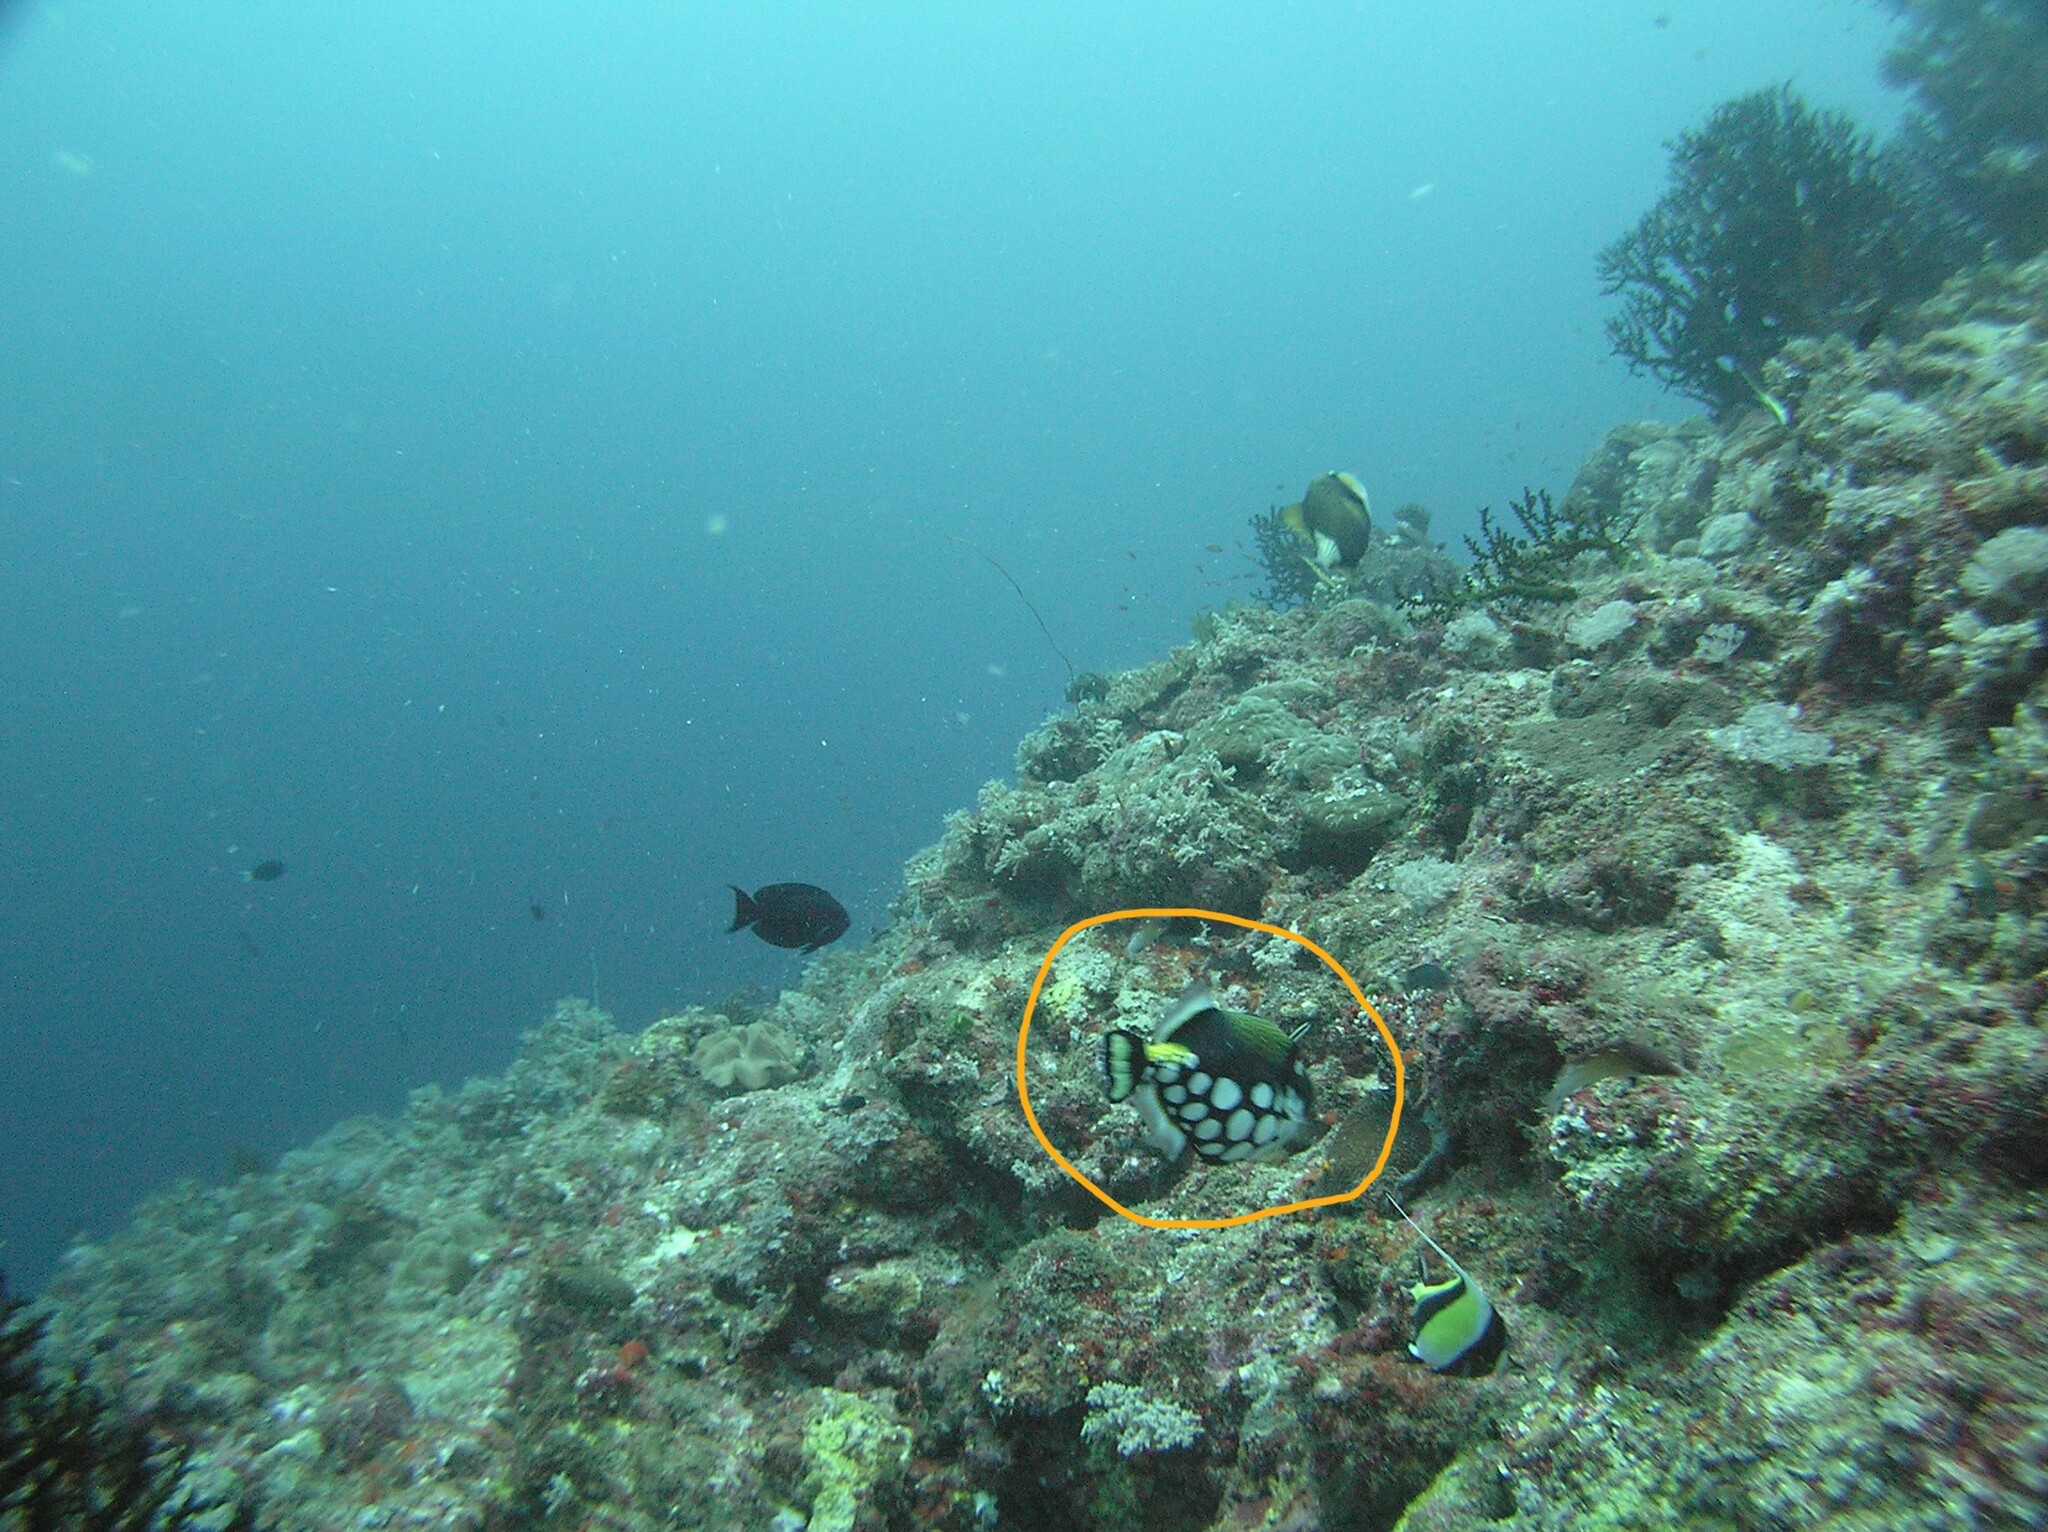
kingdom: Animalia
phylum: Chordata
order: Tetraodontiformes
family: Balistidae
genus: Balistoides
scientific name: Balistoides conspicillum
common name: Clown triggerfish
